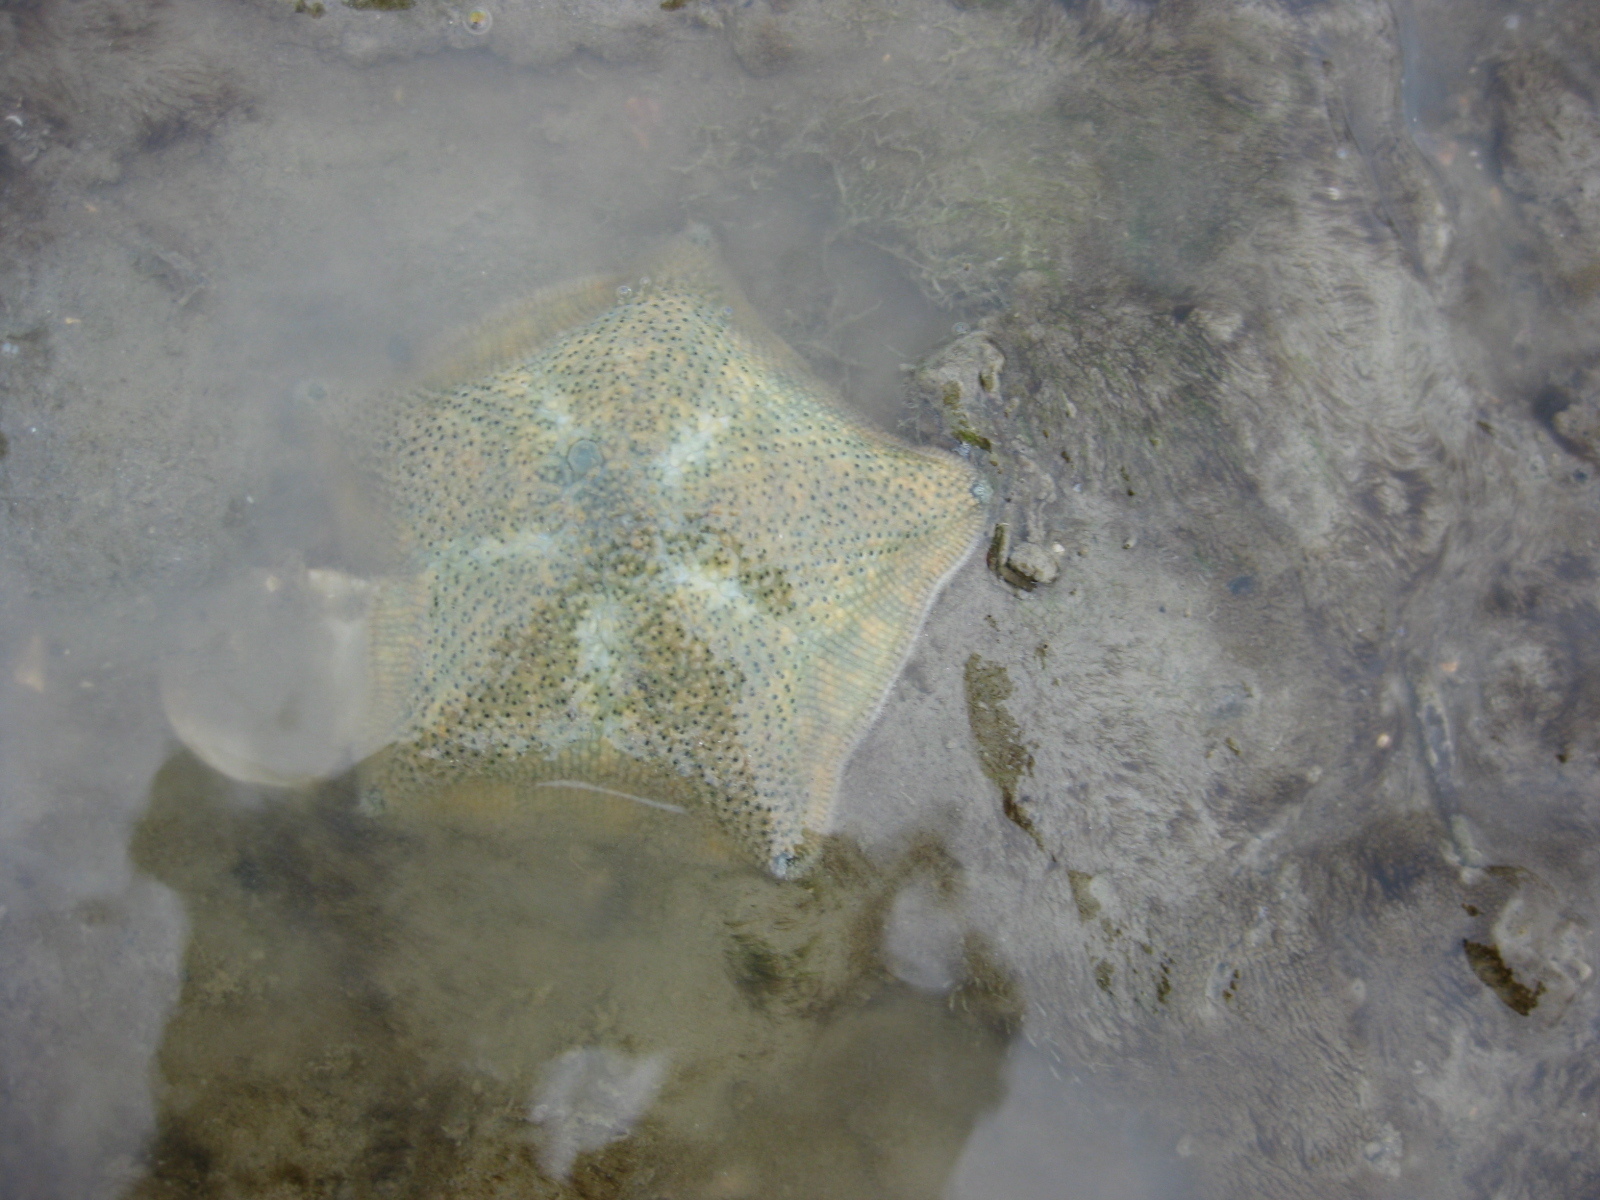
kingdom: Animalia
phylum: Echinodermata
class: Asteroidea
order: Valvatida
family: Asterinidae
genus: Patiriella
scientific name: Patiriella regularis
